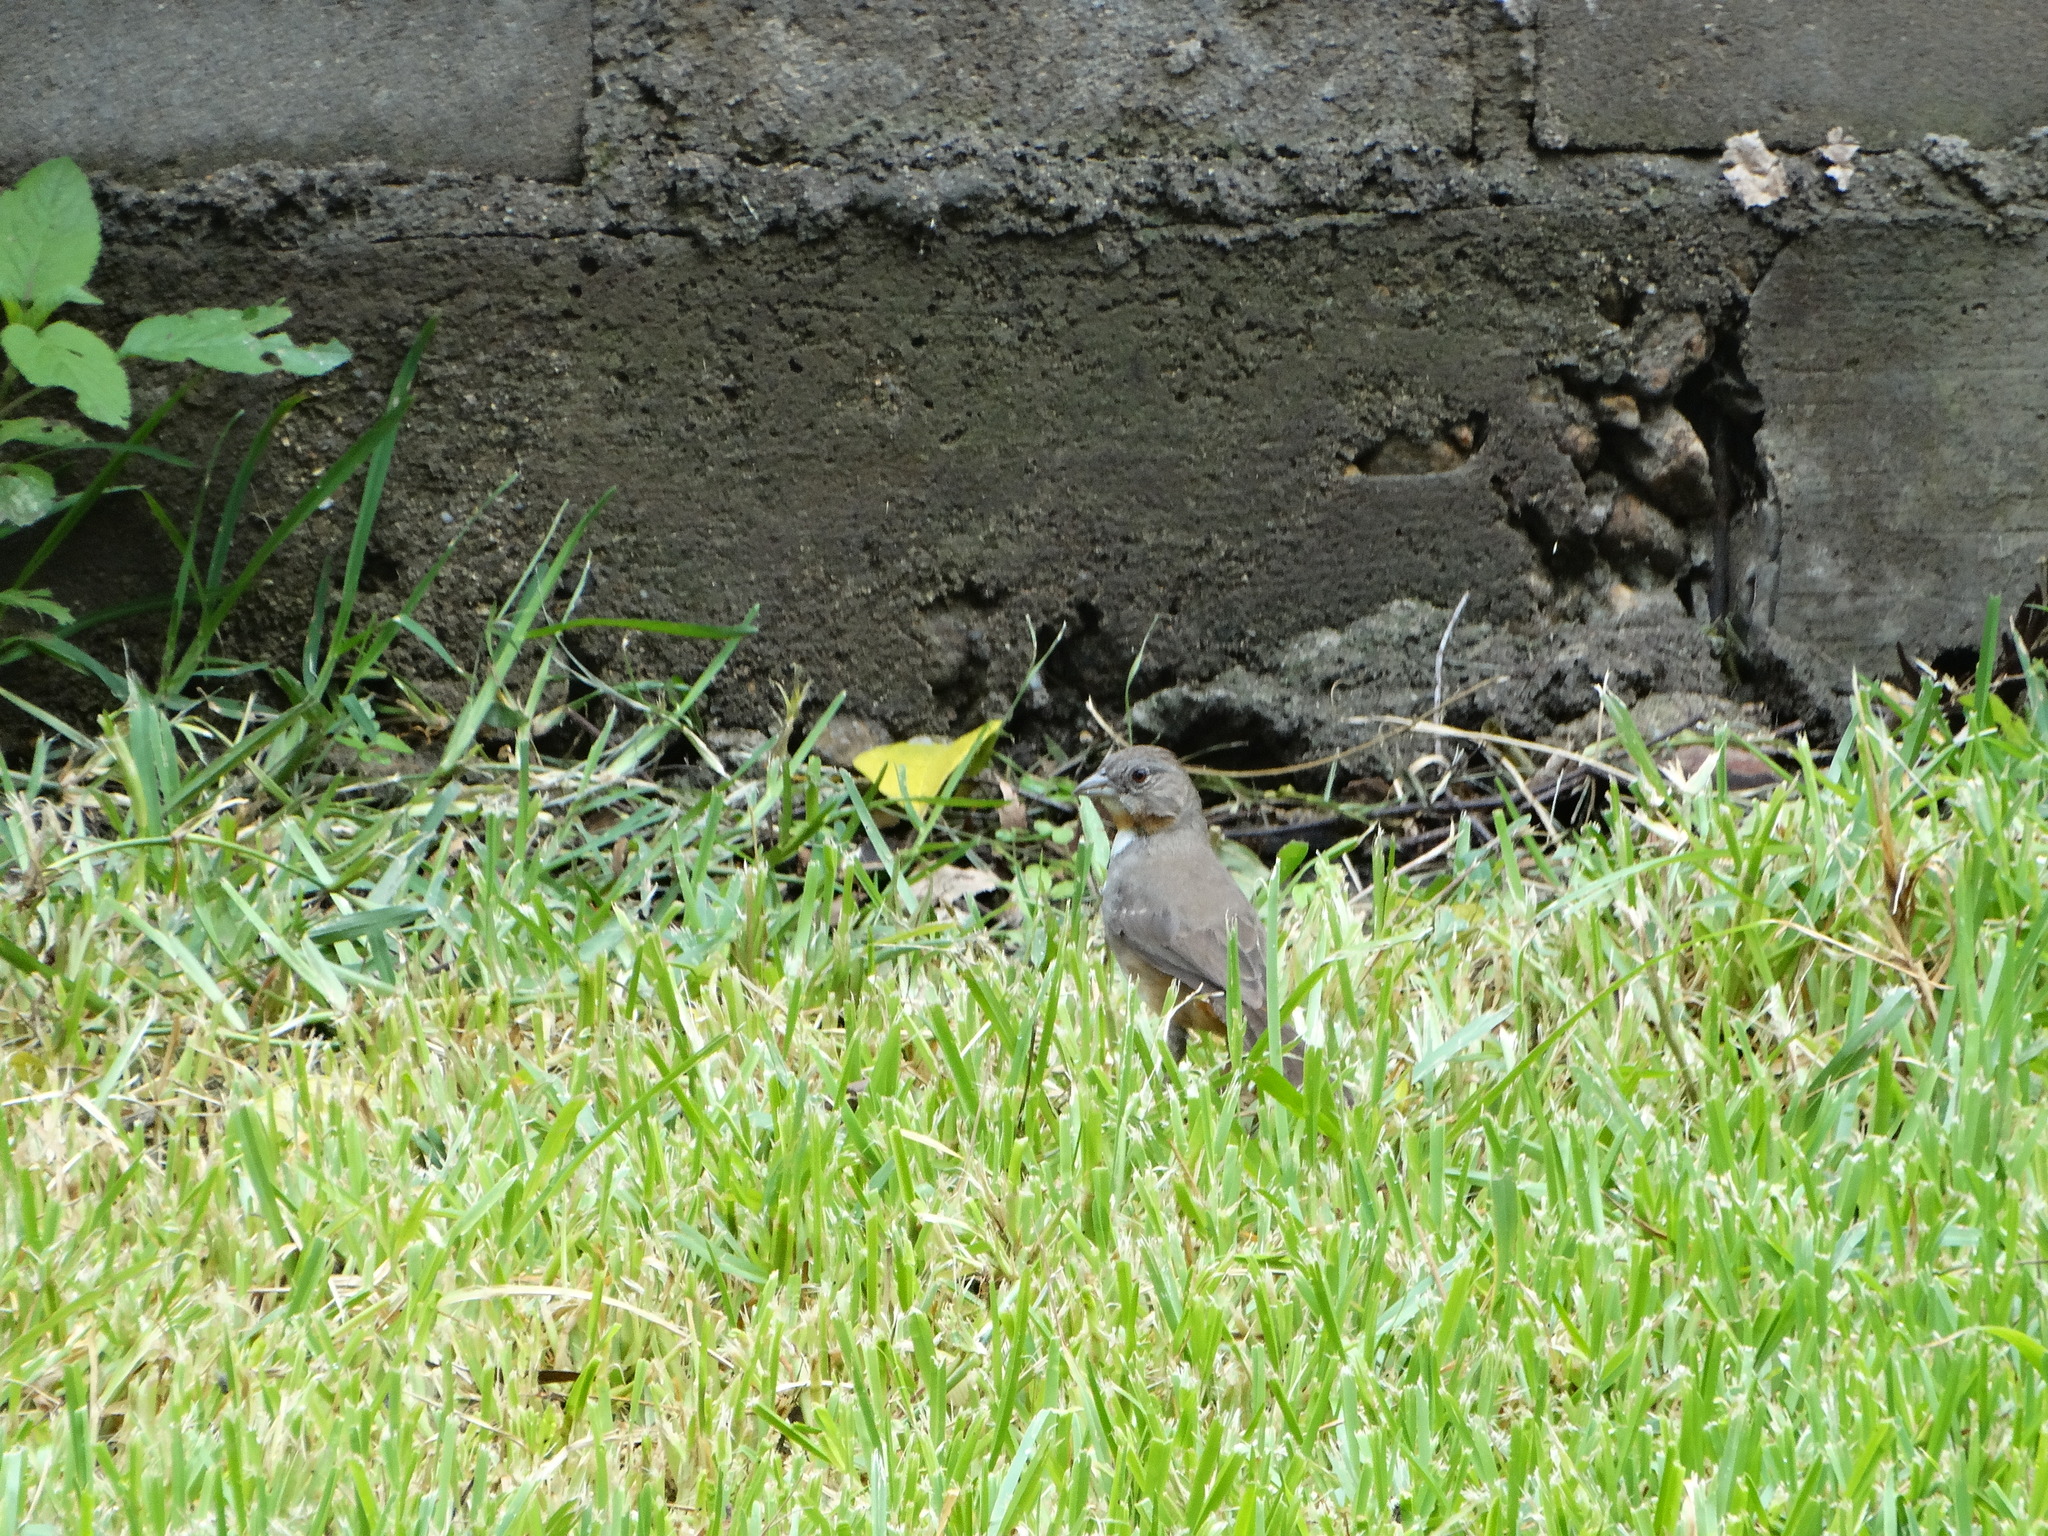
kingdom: Animalia
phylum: Chordata
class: Aves
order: Passeriformes
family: Passerellidae
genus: Melozone
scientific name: Melozone albicollis
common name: White-throated towhee
